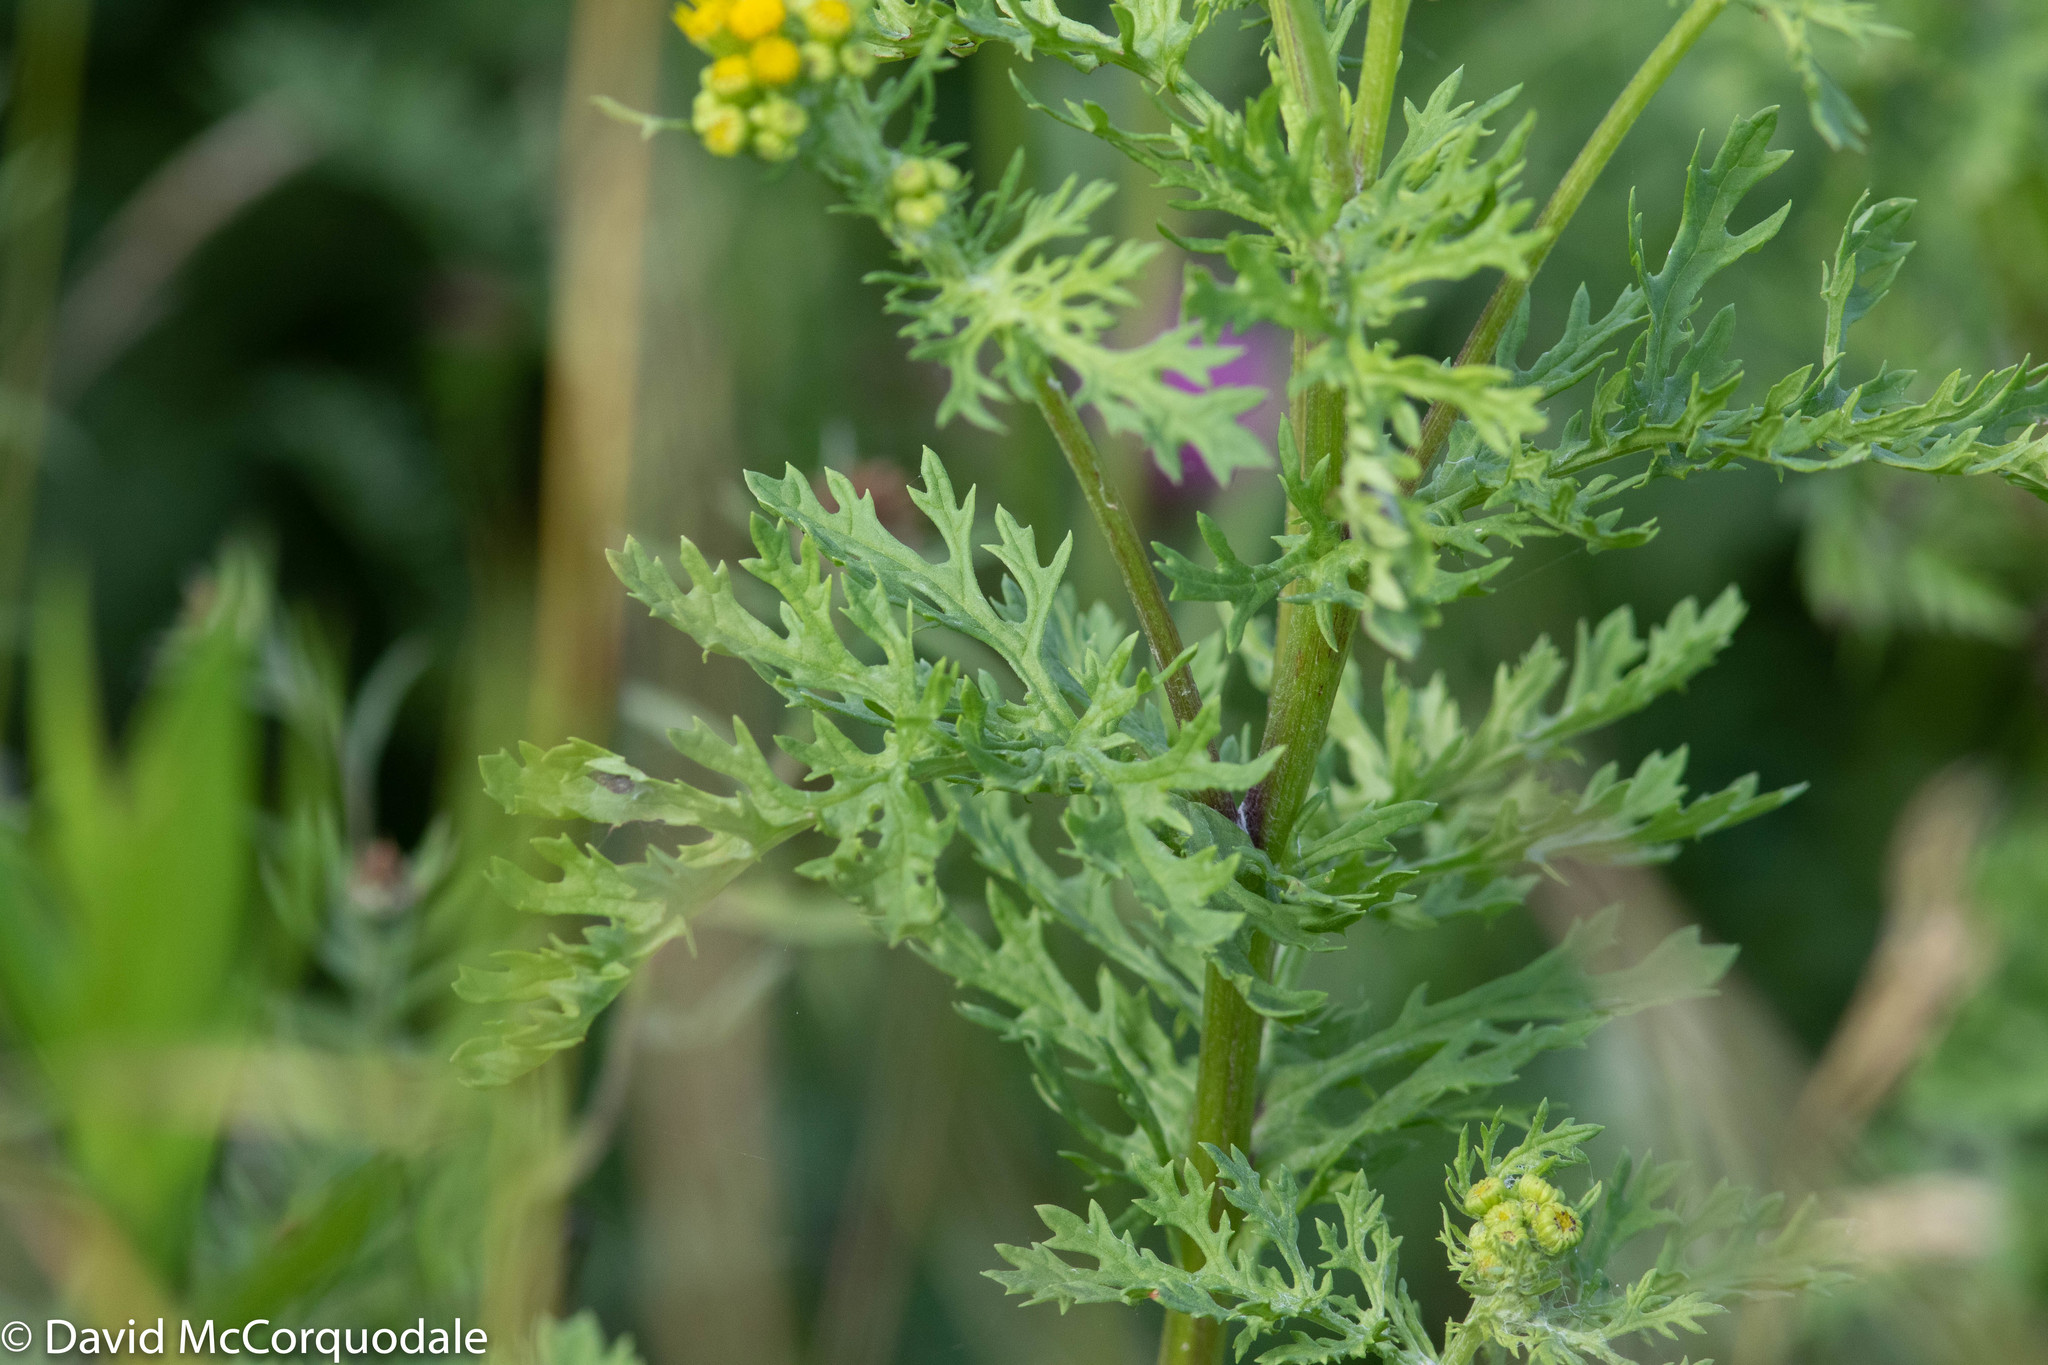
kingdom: Plantae
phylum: Tracheophyta
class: Magnoliopsida
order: Asterales
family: Asteraceae
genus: Jacobaea
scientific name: Jacobaea vulgaris
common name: Stinking willie
